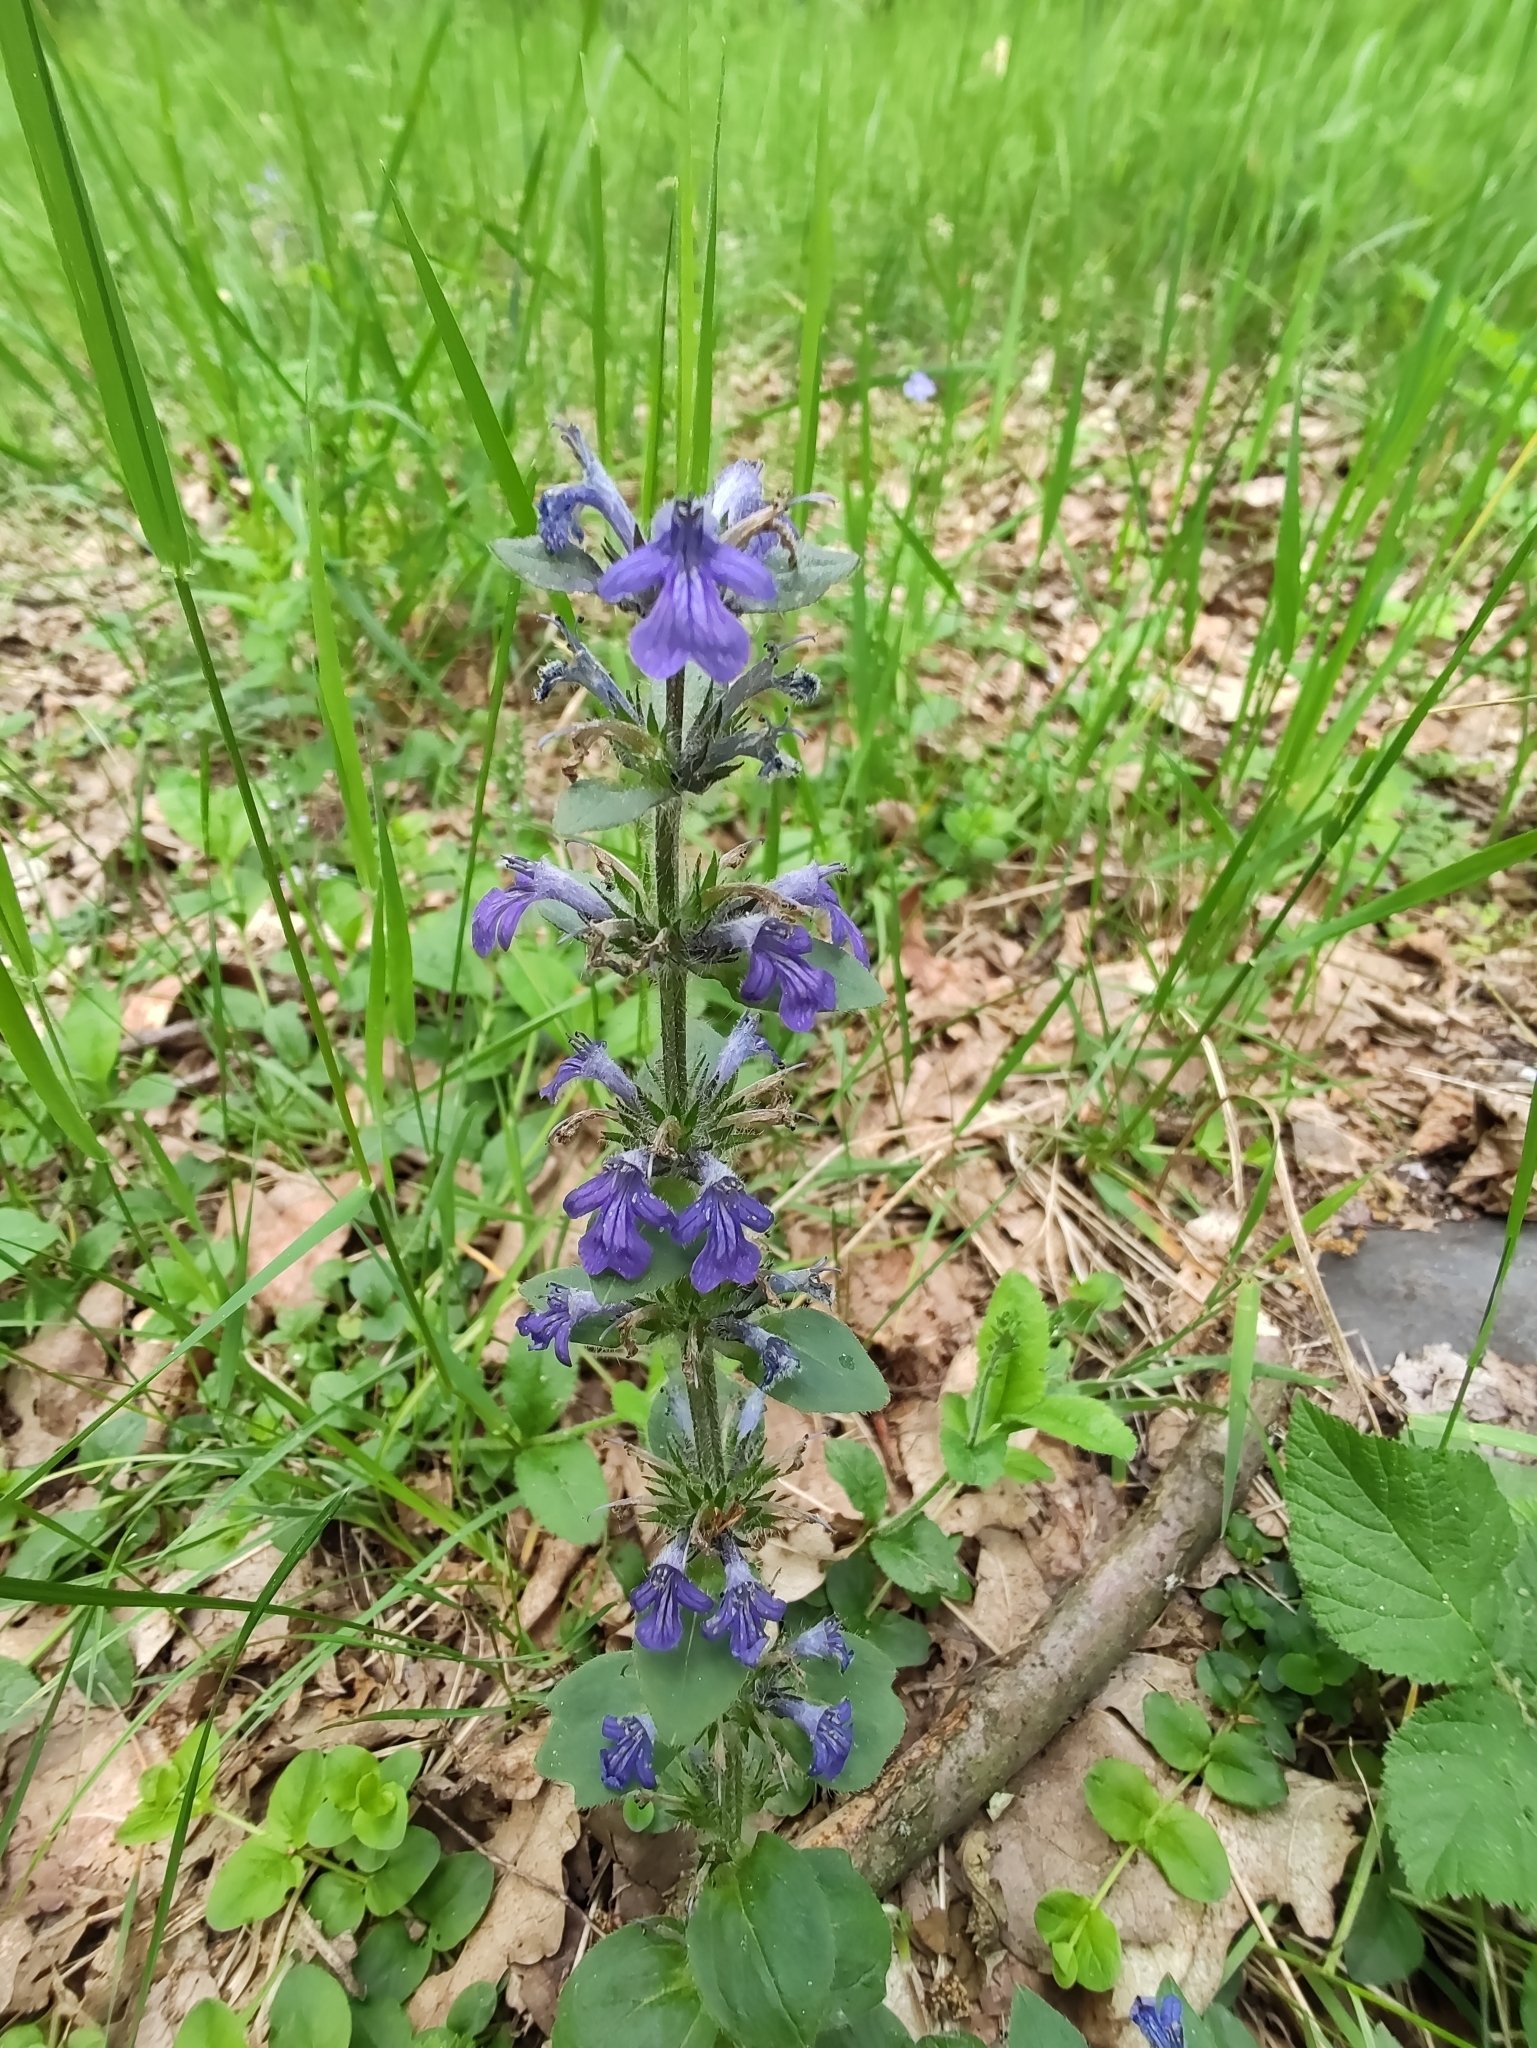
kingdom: Plantae
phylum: Tracheophyta
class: Magnoliopsida
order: Lamiales
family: Lamiaceae
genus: Ajuga
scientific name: Ajuga reptans
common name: Bugle
